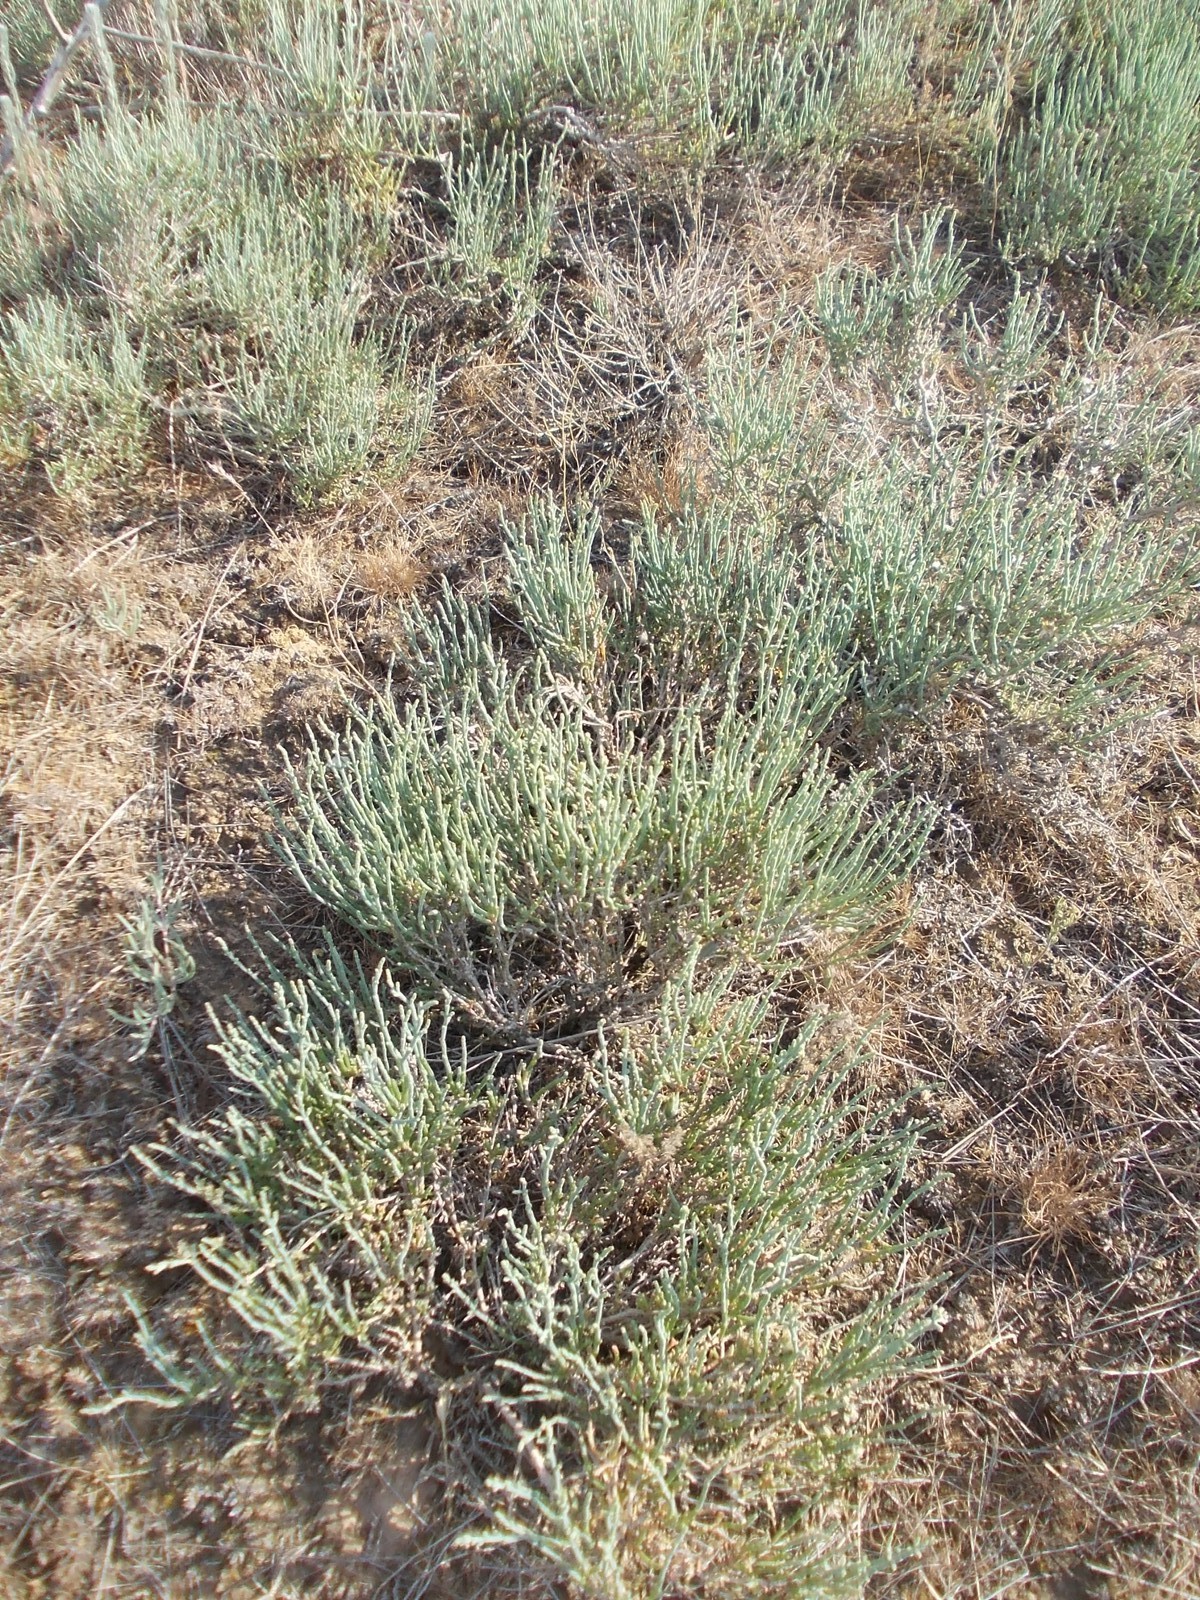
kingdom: Plantae
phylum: Tracheophyta
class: Magnoliopsida
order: Caryophyllales
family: Amaranthaceae
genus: Anabasis
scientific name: Anabasis salsa
